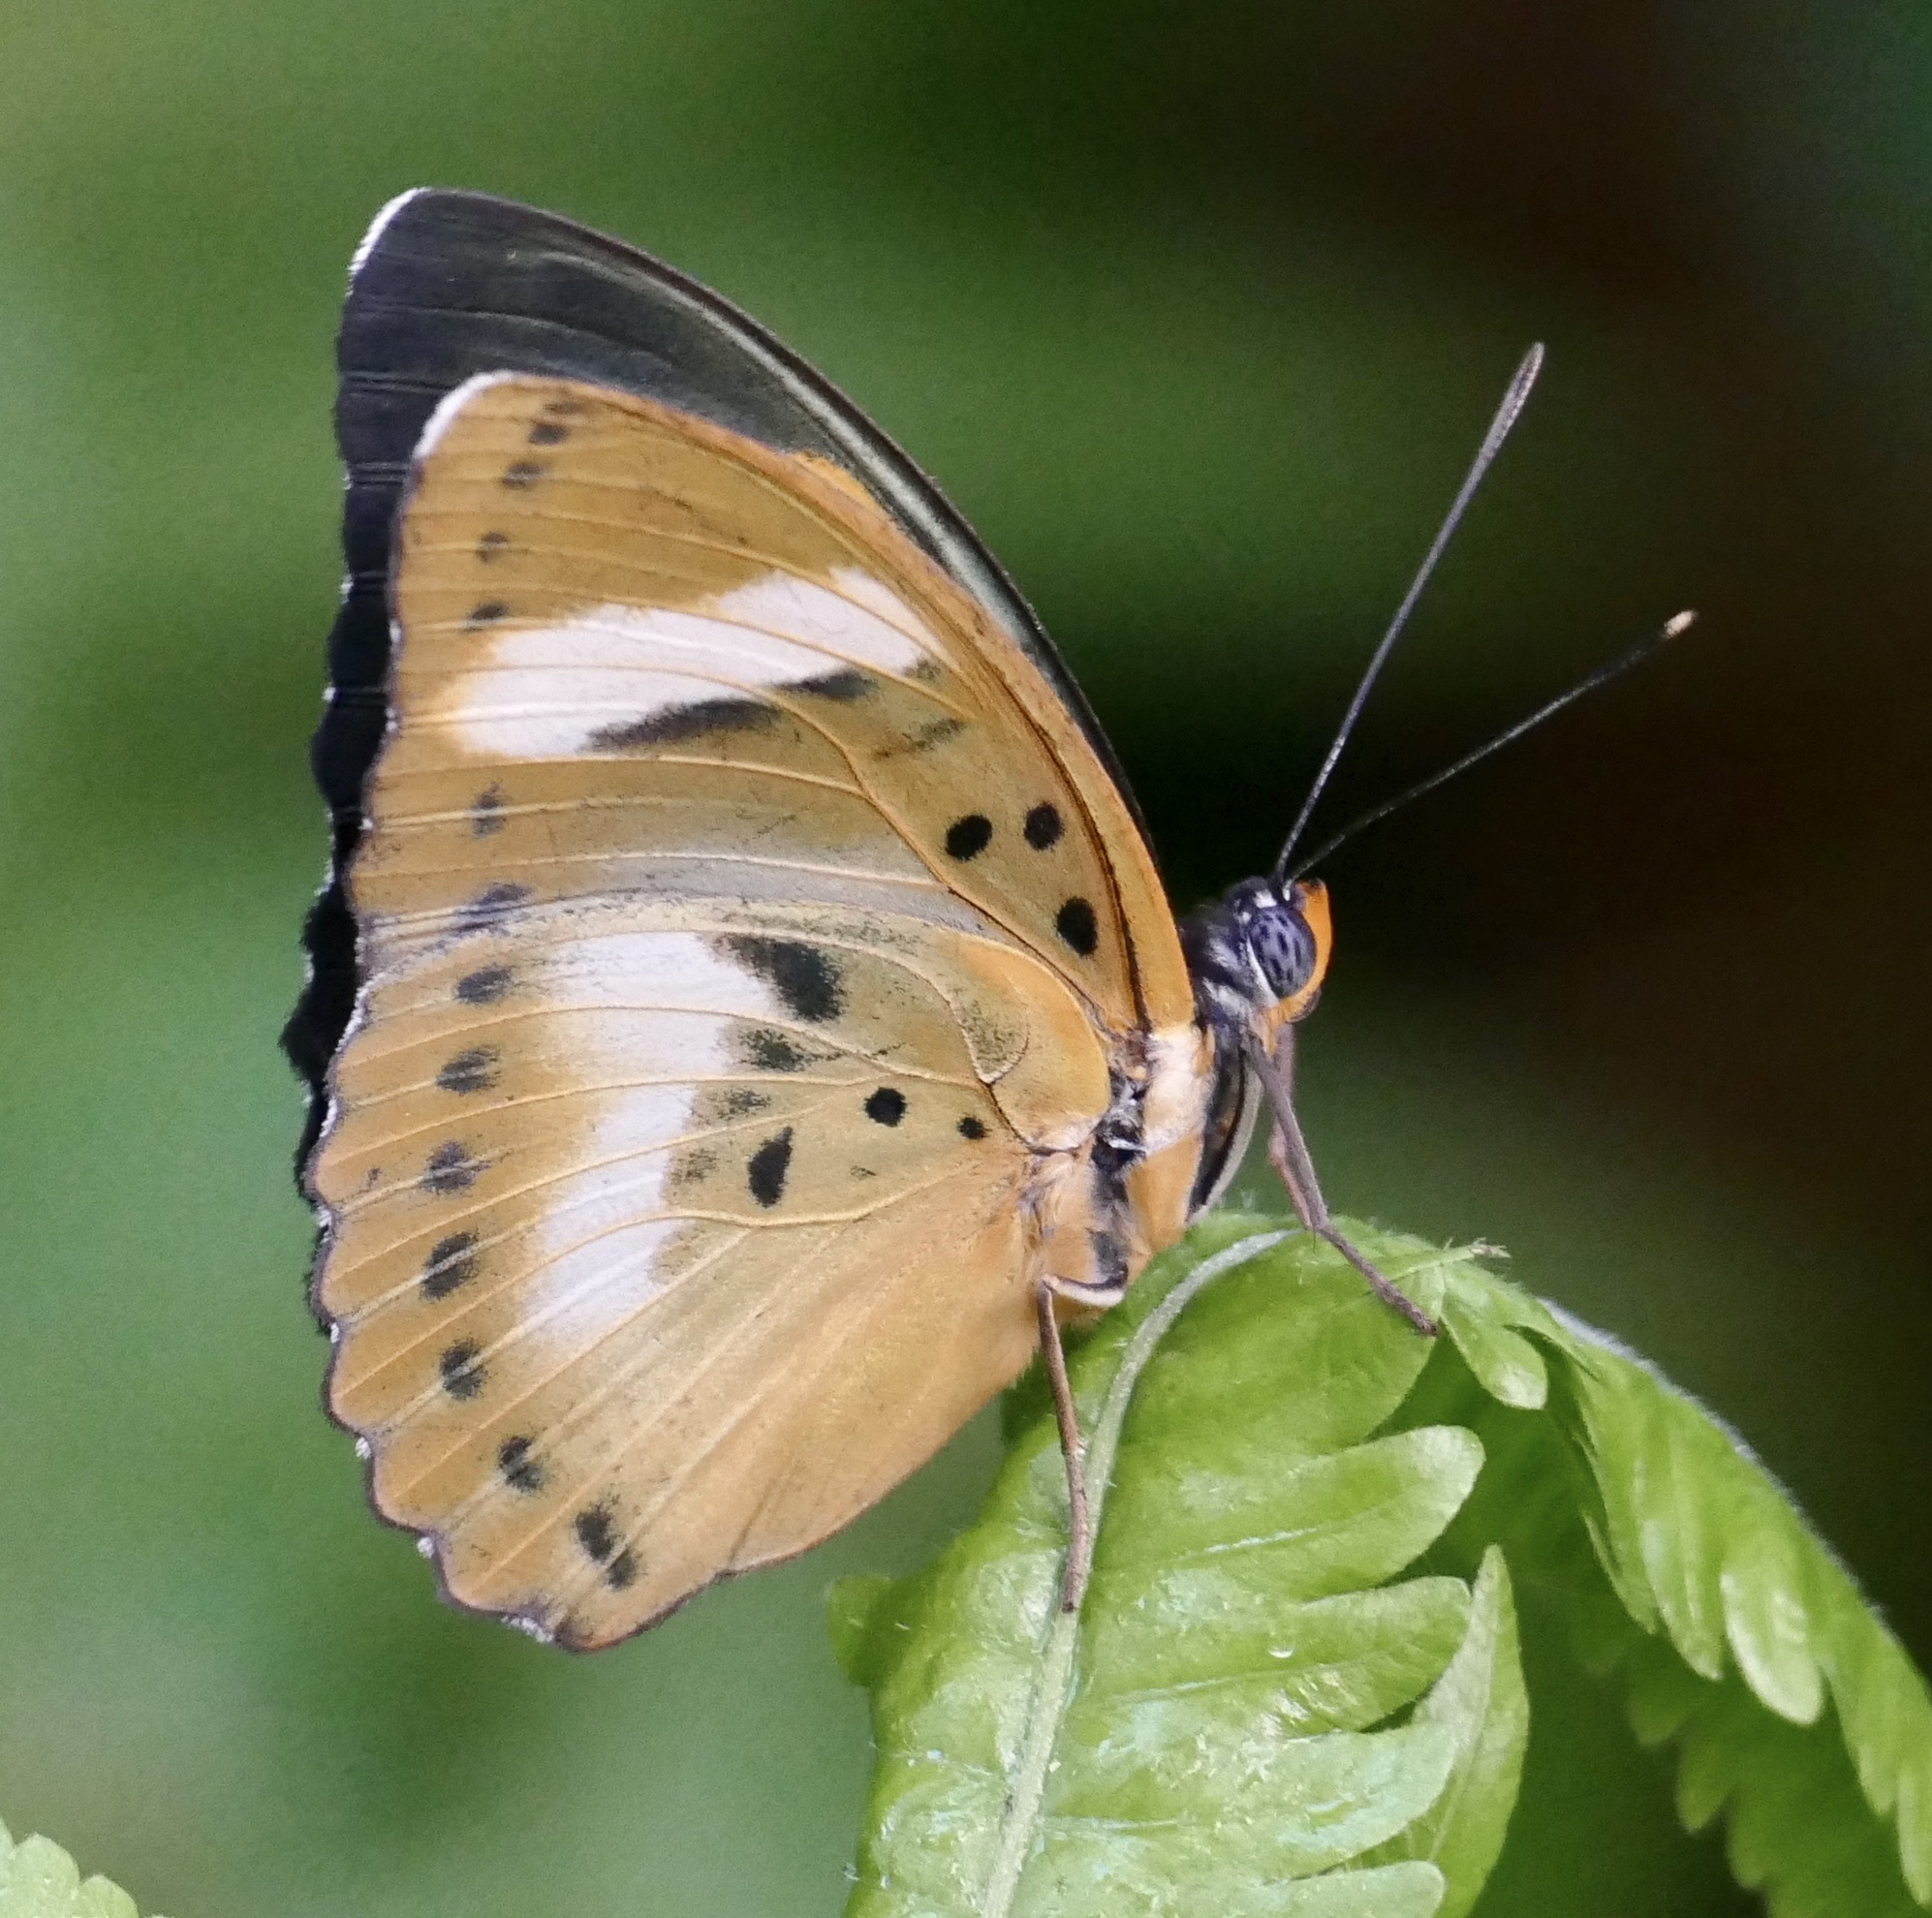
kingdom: Animalia
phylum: Arthropoda
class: Insecta
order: Lepidoptera
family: Nymphalidae
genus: Euphaedra
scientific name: Euphaedra phaethusa
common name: Common ceres forester
